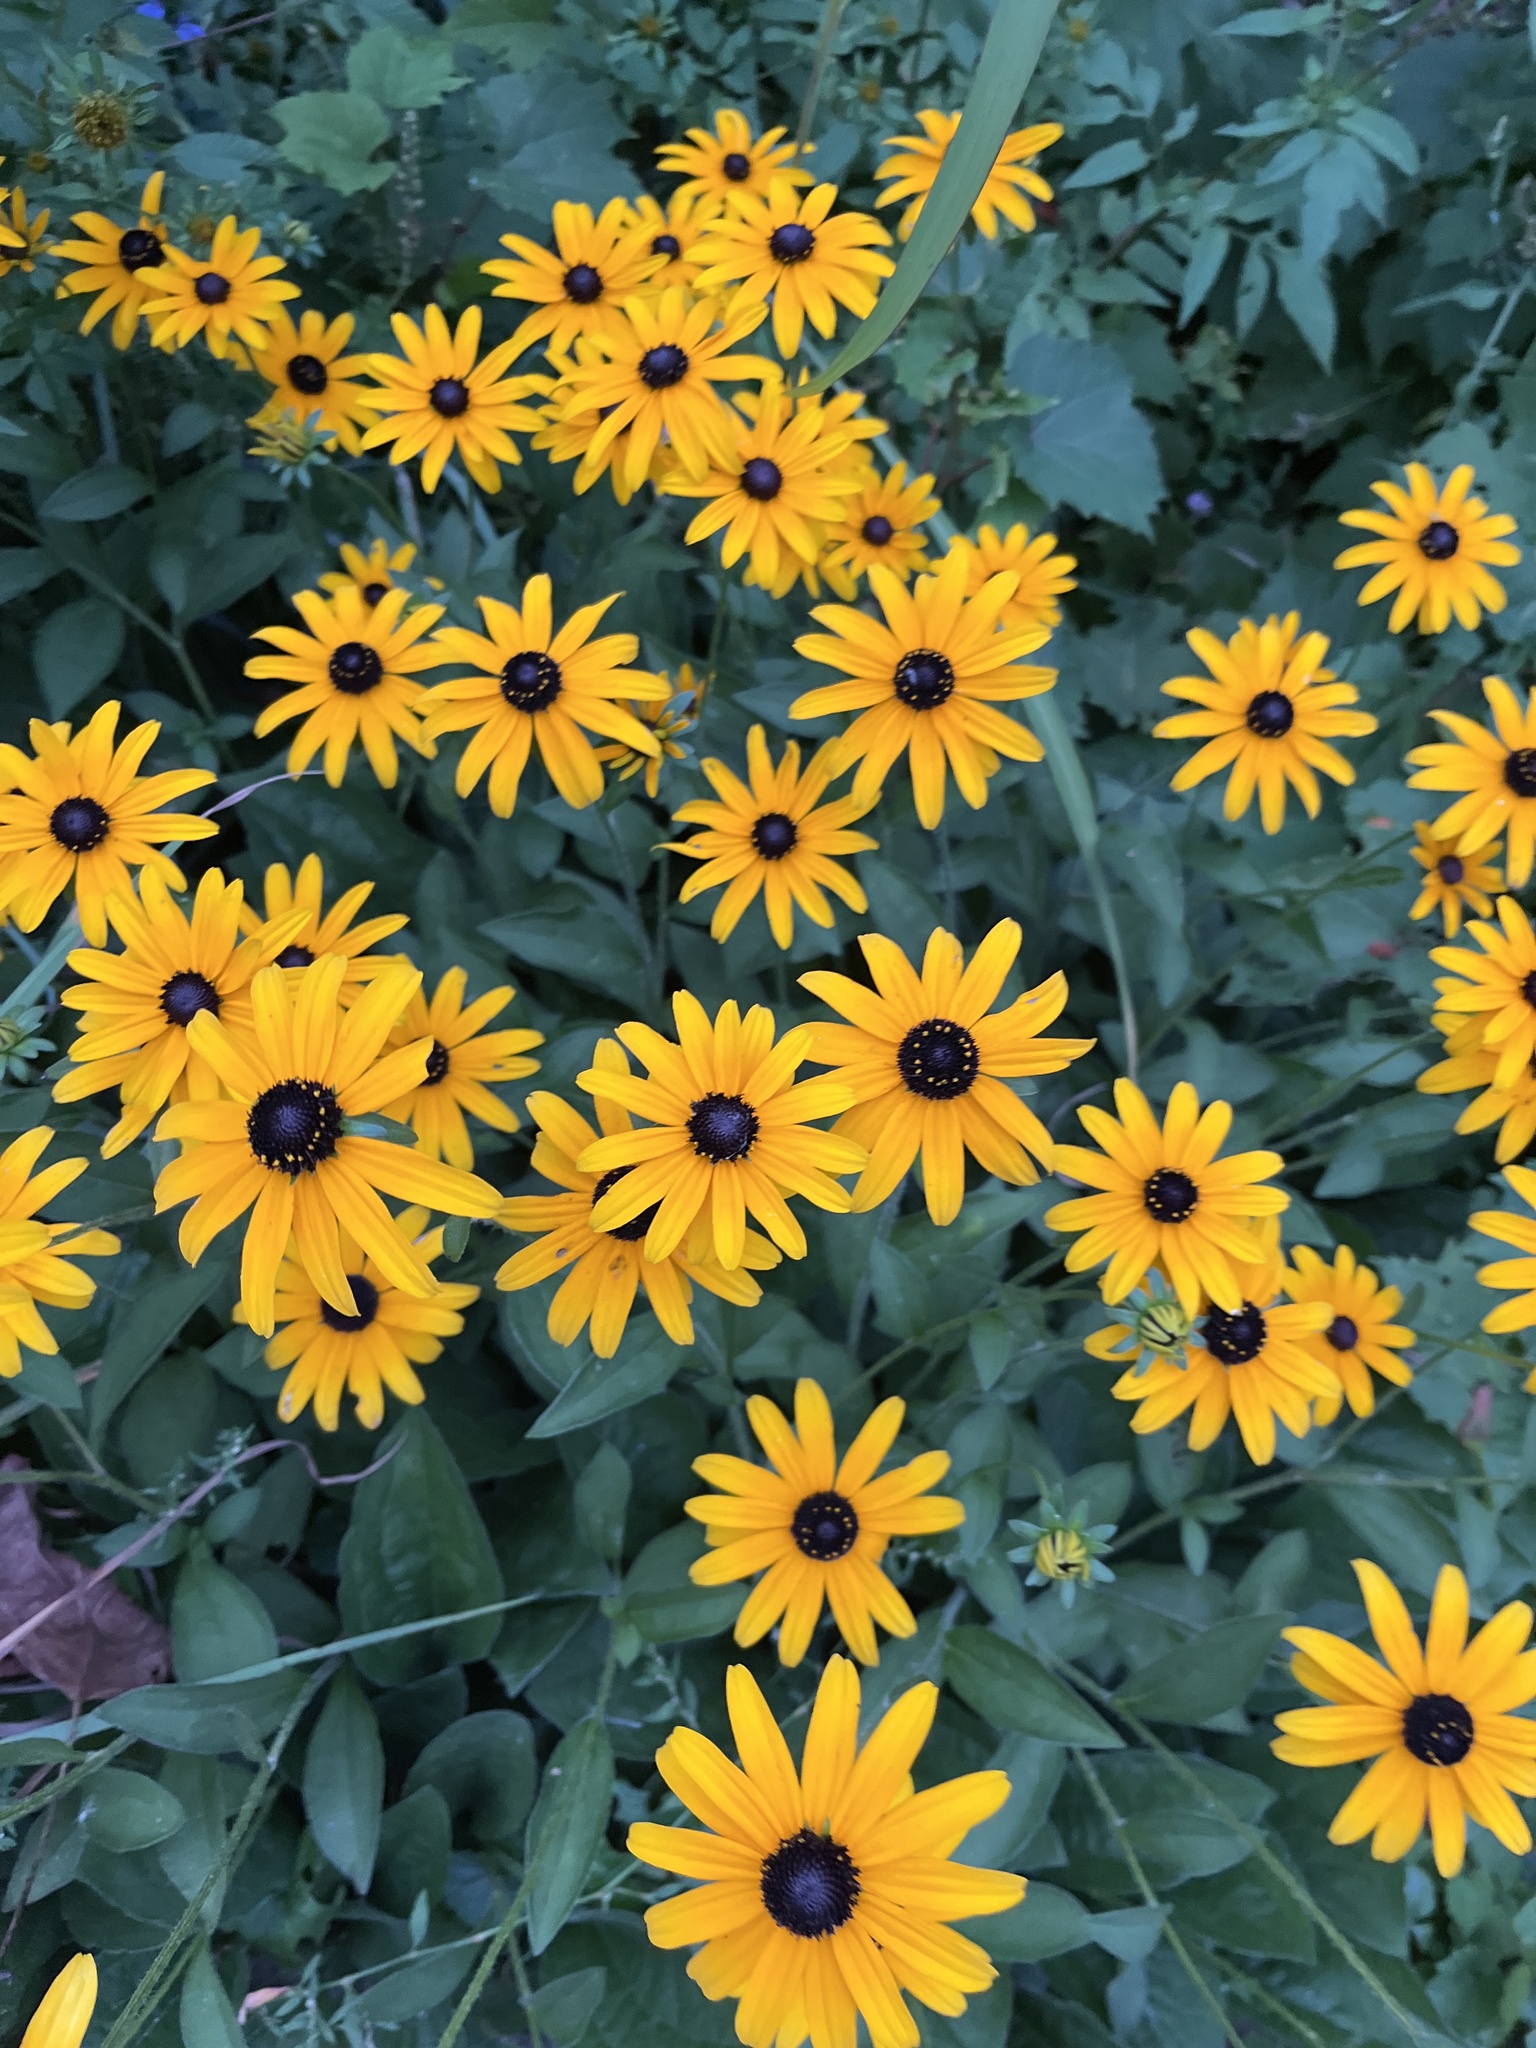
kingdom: Plantae
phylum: Tracheophyta
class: Magnoliopsida
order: Asterales
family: Asteraceae
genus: Rudbeckia
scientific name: Rudbeckia fulgida
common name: Perennial coneflower
